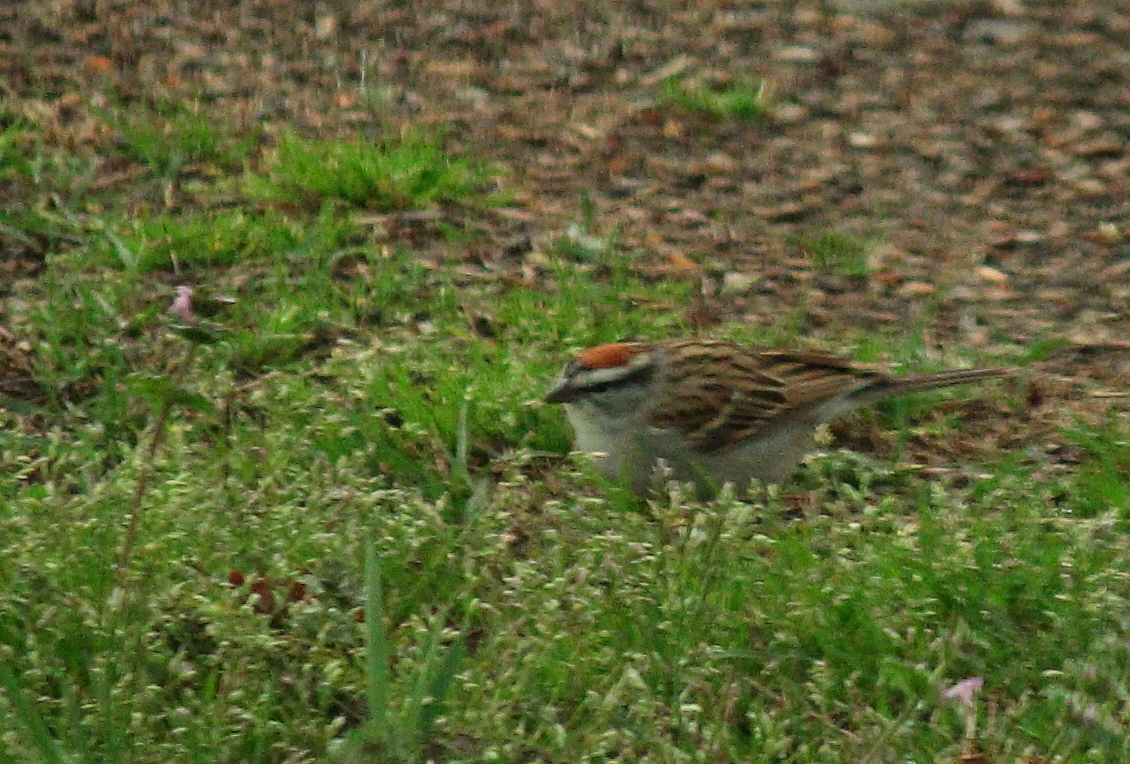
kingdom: Animalia
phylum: Chordata
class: Aves
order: Passeriformes
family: Passerellidae
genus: Spizella
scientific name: Spizella passerina
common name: Chipping sparrow
